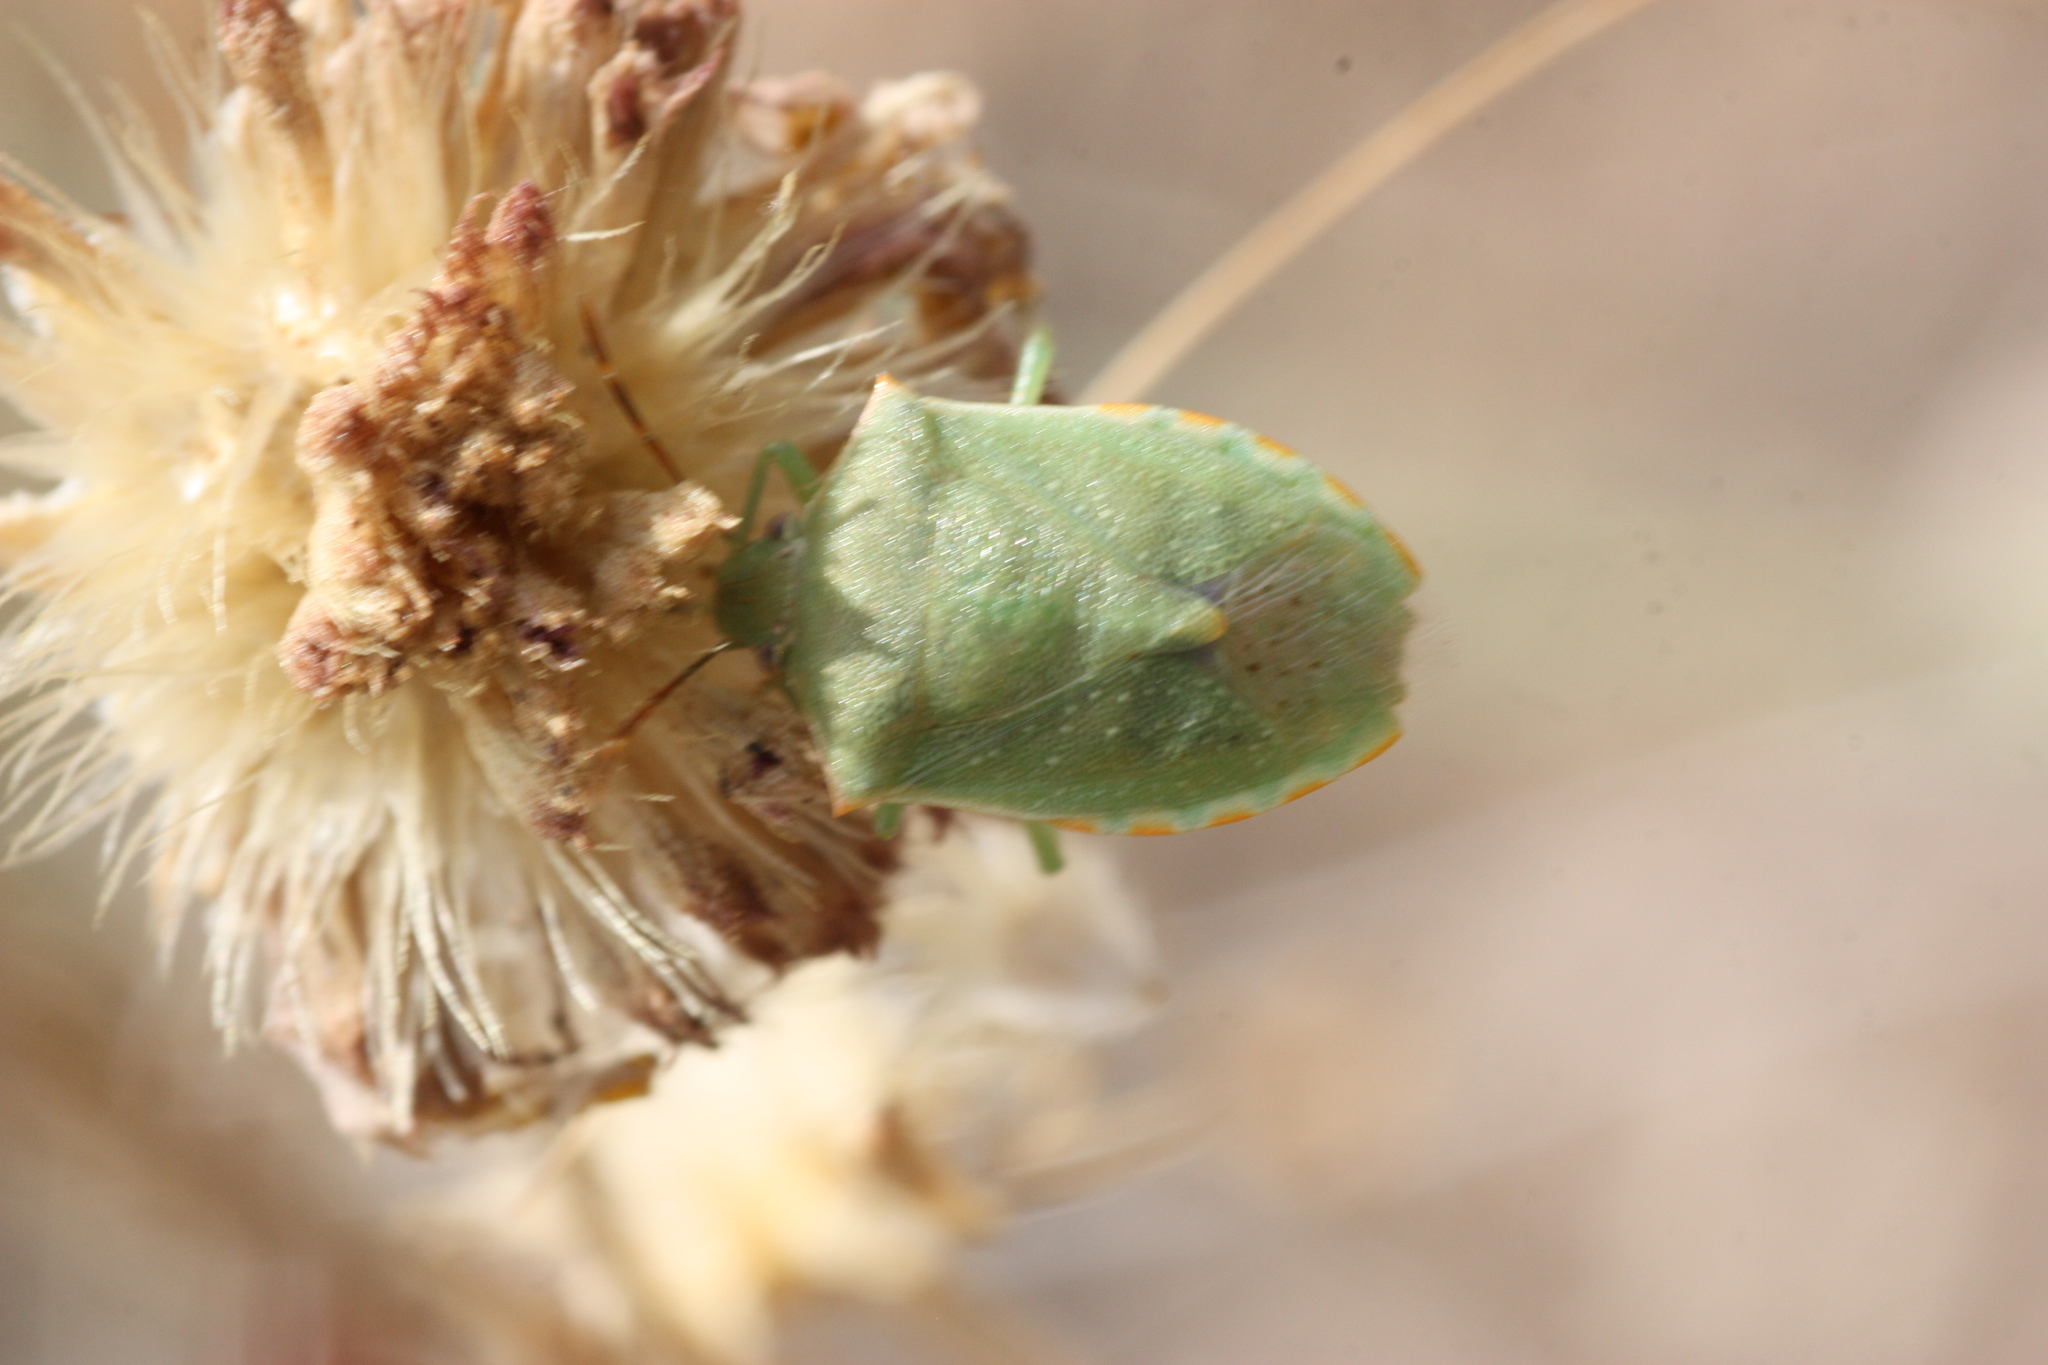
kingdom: Animalia
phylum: Arthropoda
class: Insecta
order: Hemiptera
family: Pentatomidae
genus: Thyanta
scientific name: Thyanta accerra
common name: Stink bug
